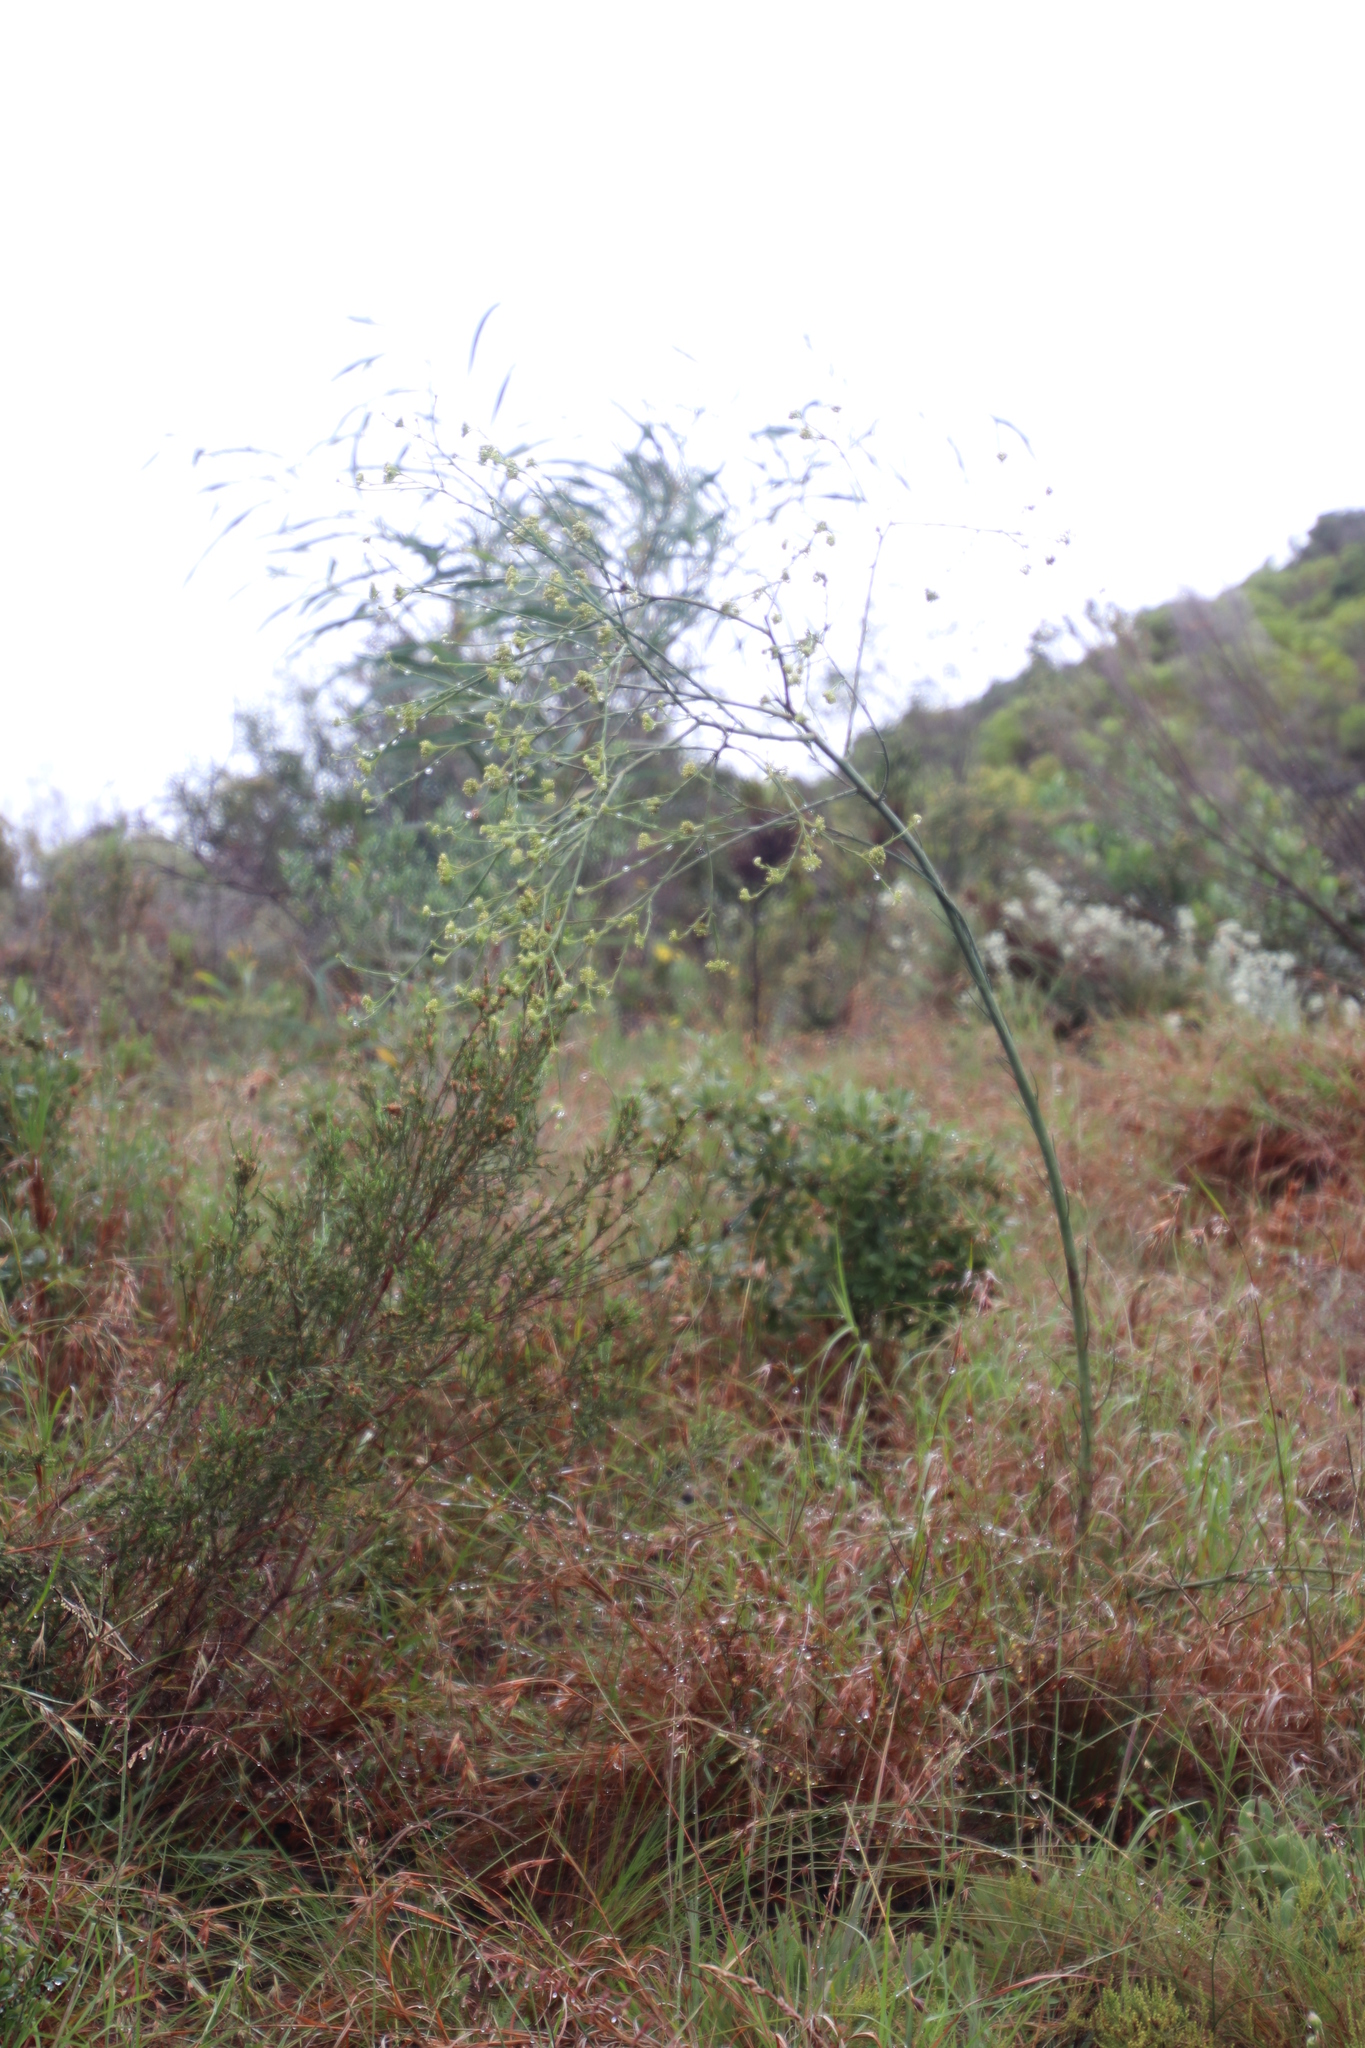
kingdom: Plantae
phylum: Tracheophyta
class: Magnoliopsida
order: Santalales
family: Thesiaceae
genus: Thesium
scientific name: Thesium strictum
